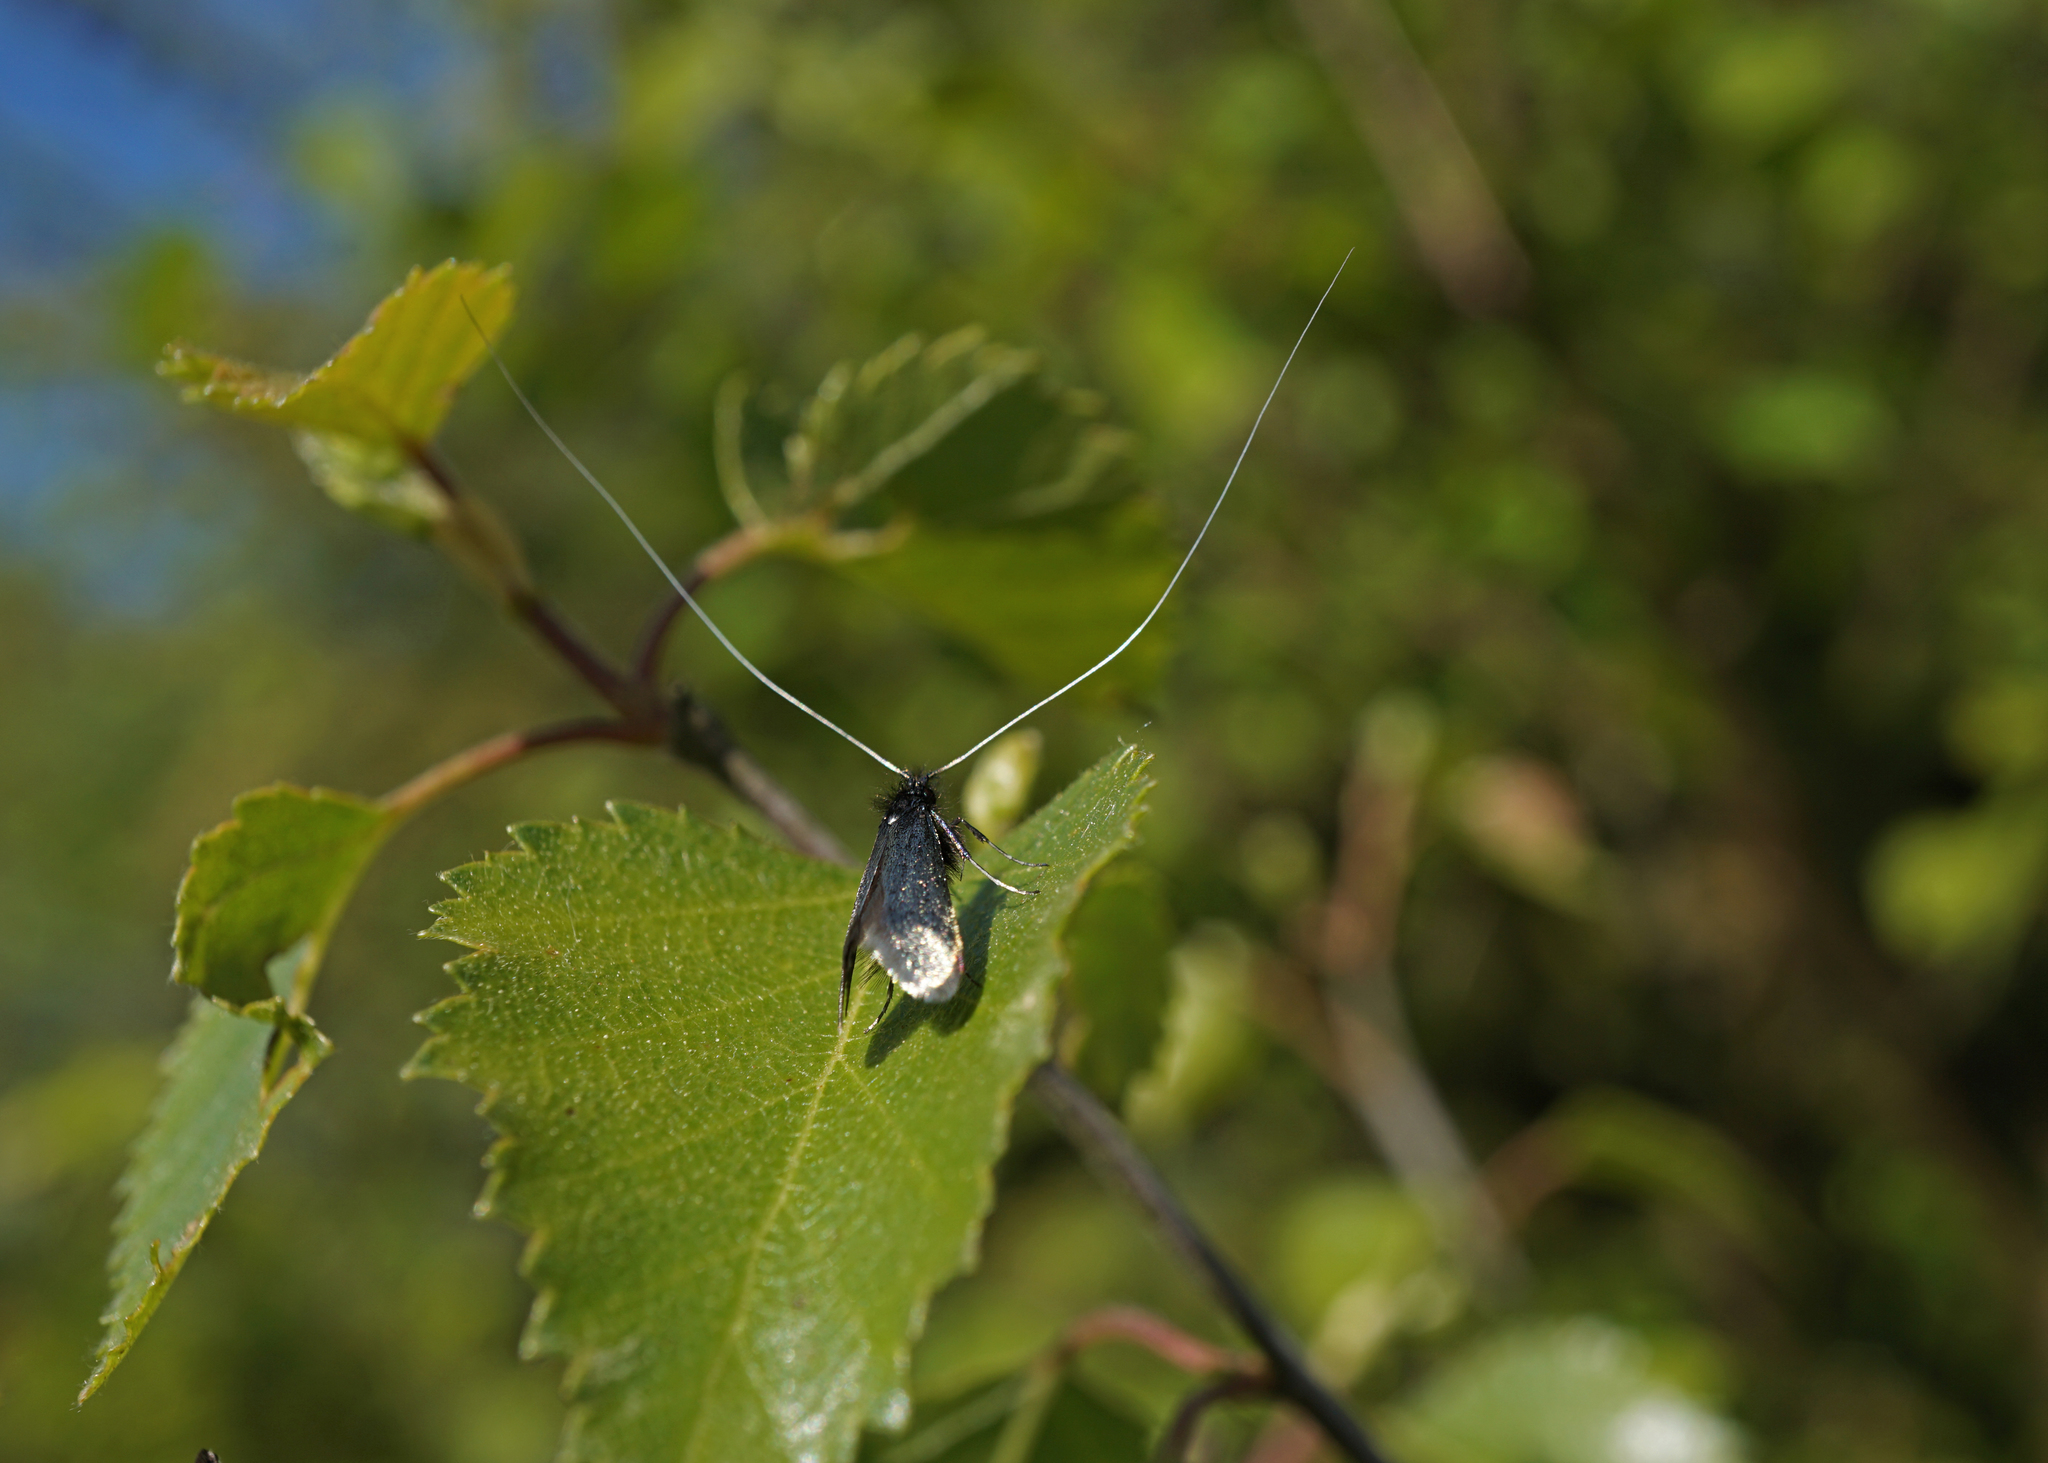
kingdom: Animalia
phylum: Arthropoda
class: Insecta
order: Lepidoptera
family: Adelidae
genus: Adela
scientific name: Adela viridella
